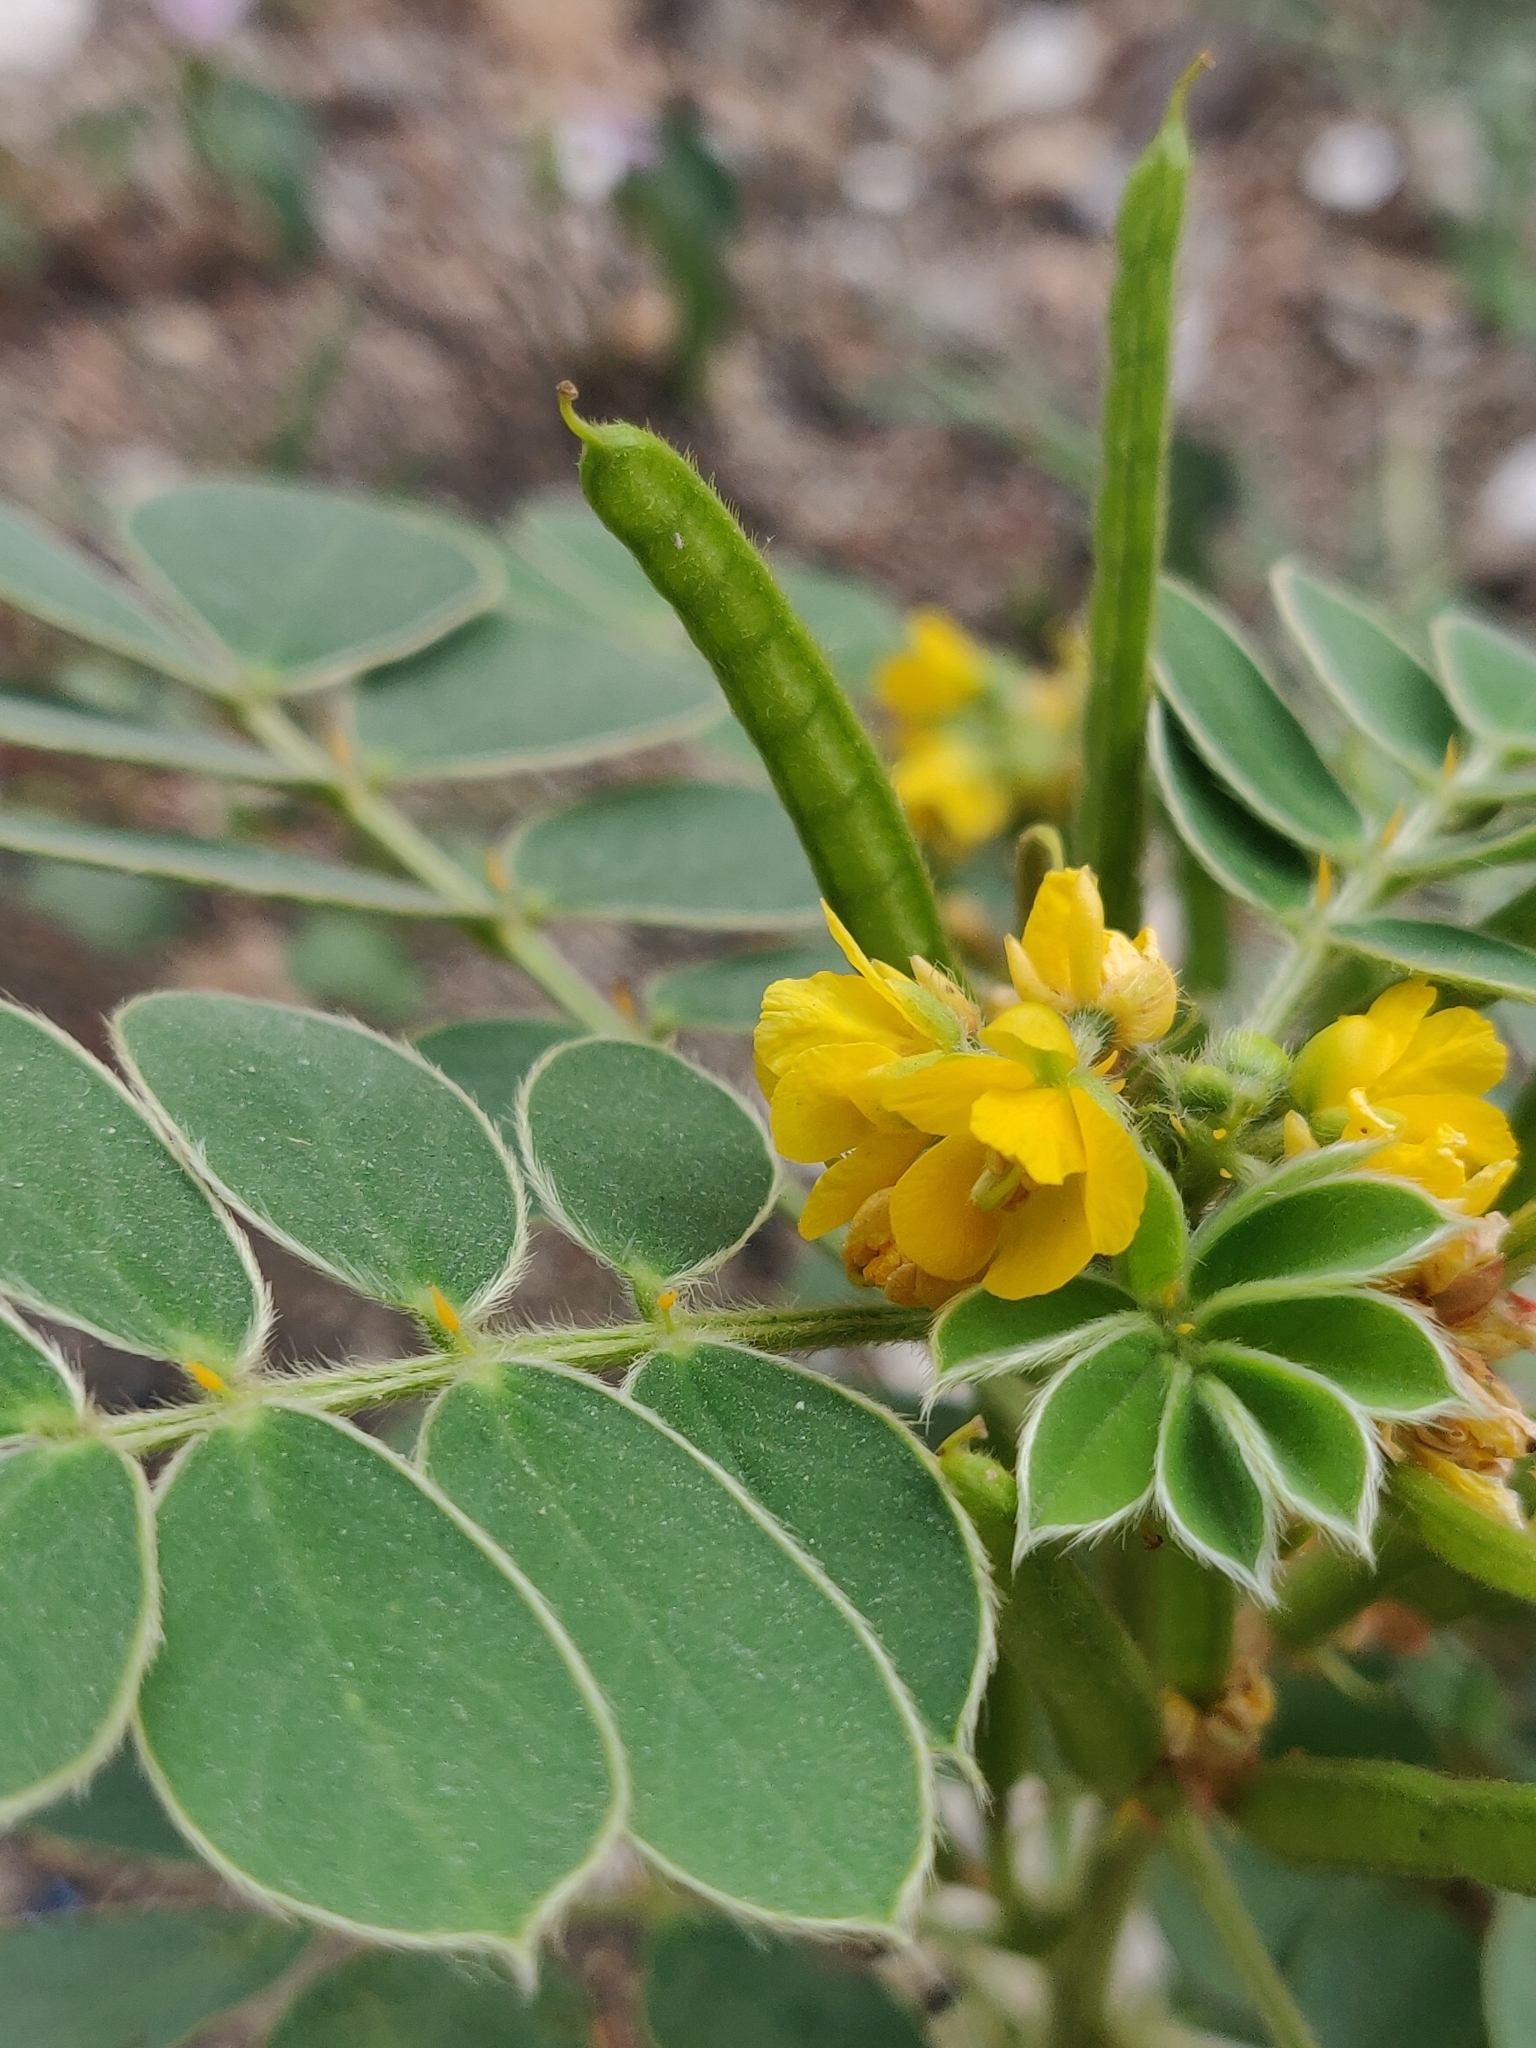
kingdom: Plantae
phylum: Tracheophyta
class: Magnoliopsida
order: Fabales
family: Fabaceae
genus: Senna
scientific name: Senna uniflora
